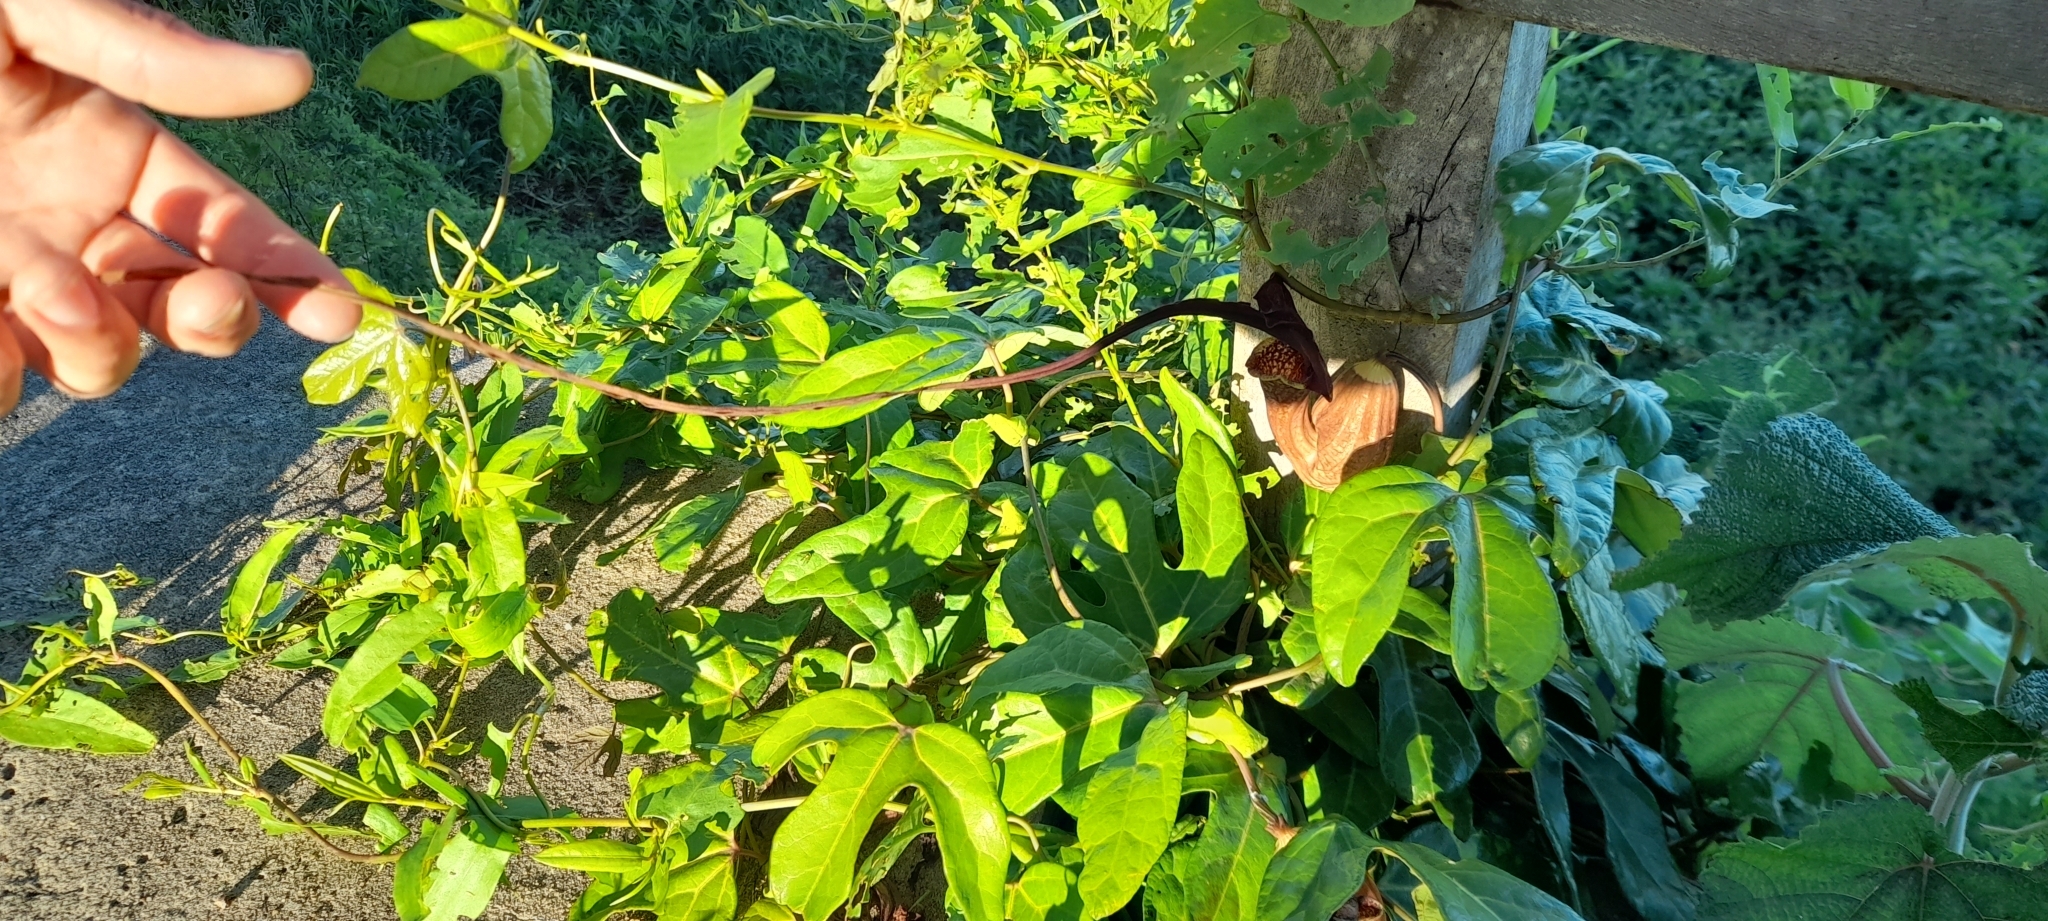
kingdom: Plantae
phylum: Tracheophyta
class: Magnoliopsida
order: Piperales
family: Aristolochiaceae
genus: Aristolochia
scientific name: Aristolochia trilobata
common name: Dutchman's pipe
